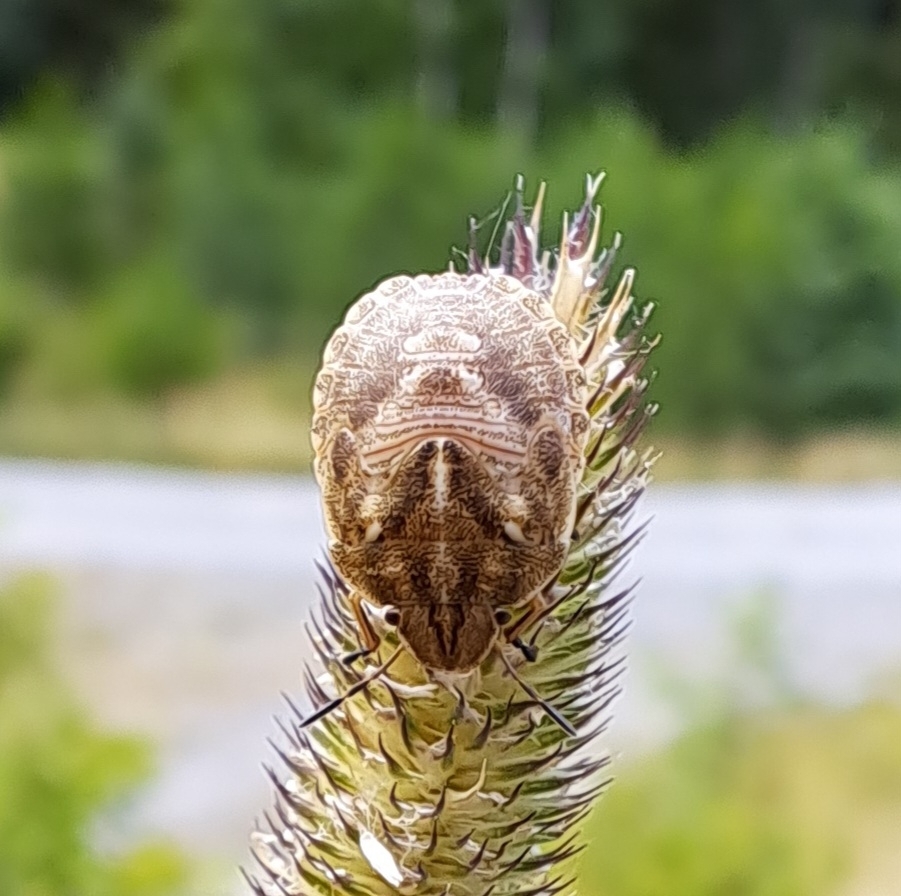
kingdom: Animalia
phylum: Arthropoda
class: Insecta
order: Hemiptera
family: Scutelleridae
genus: Eurygaster
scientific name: Eurygaster testudinaria
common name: Tortoise bug
